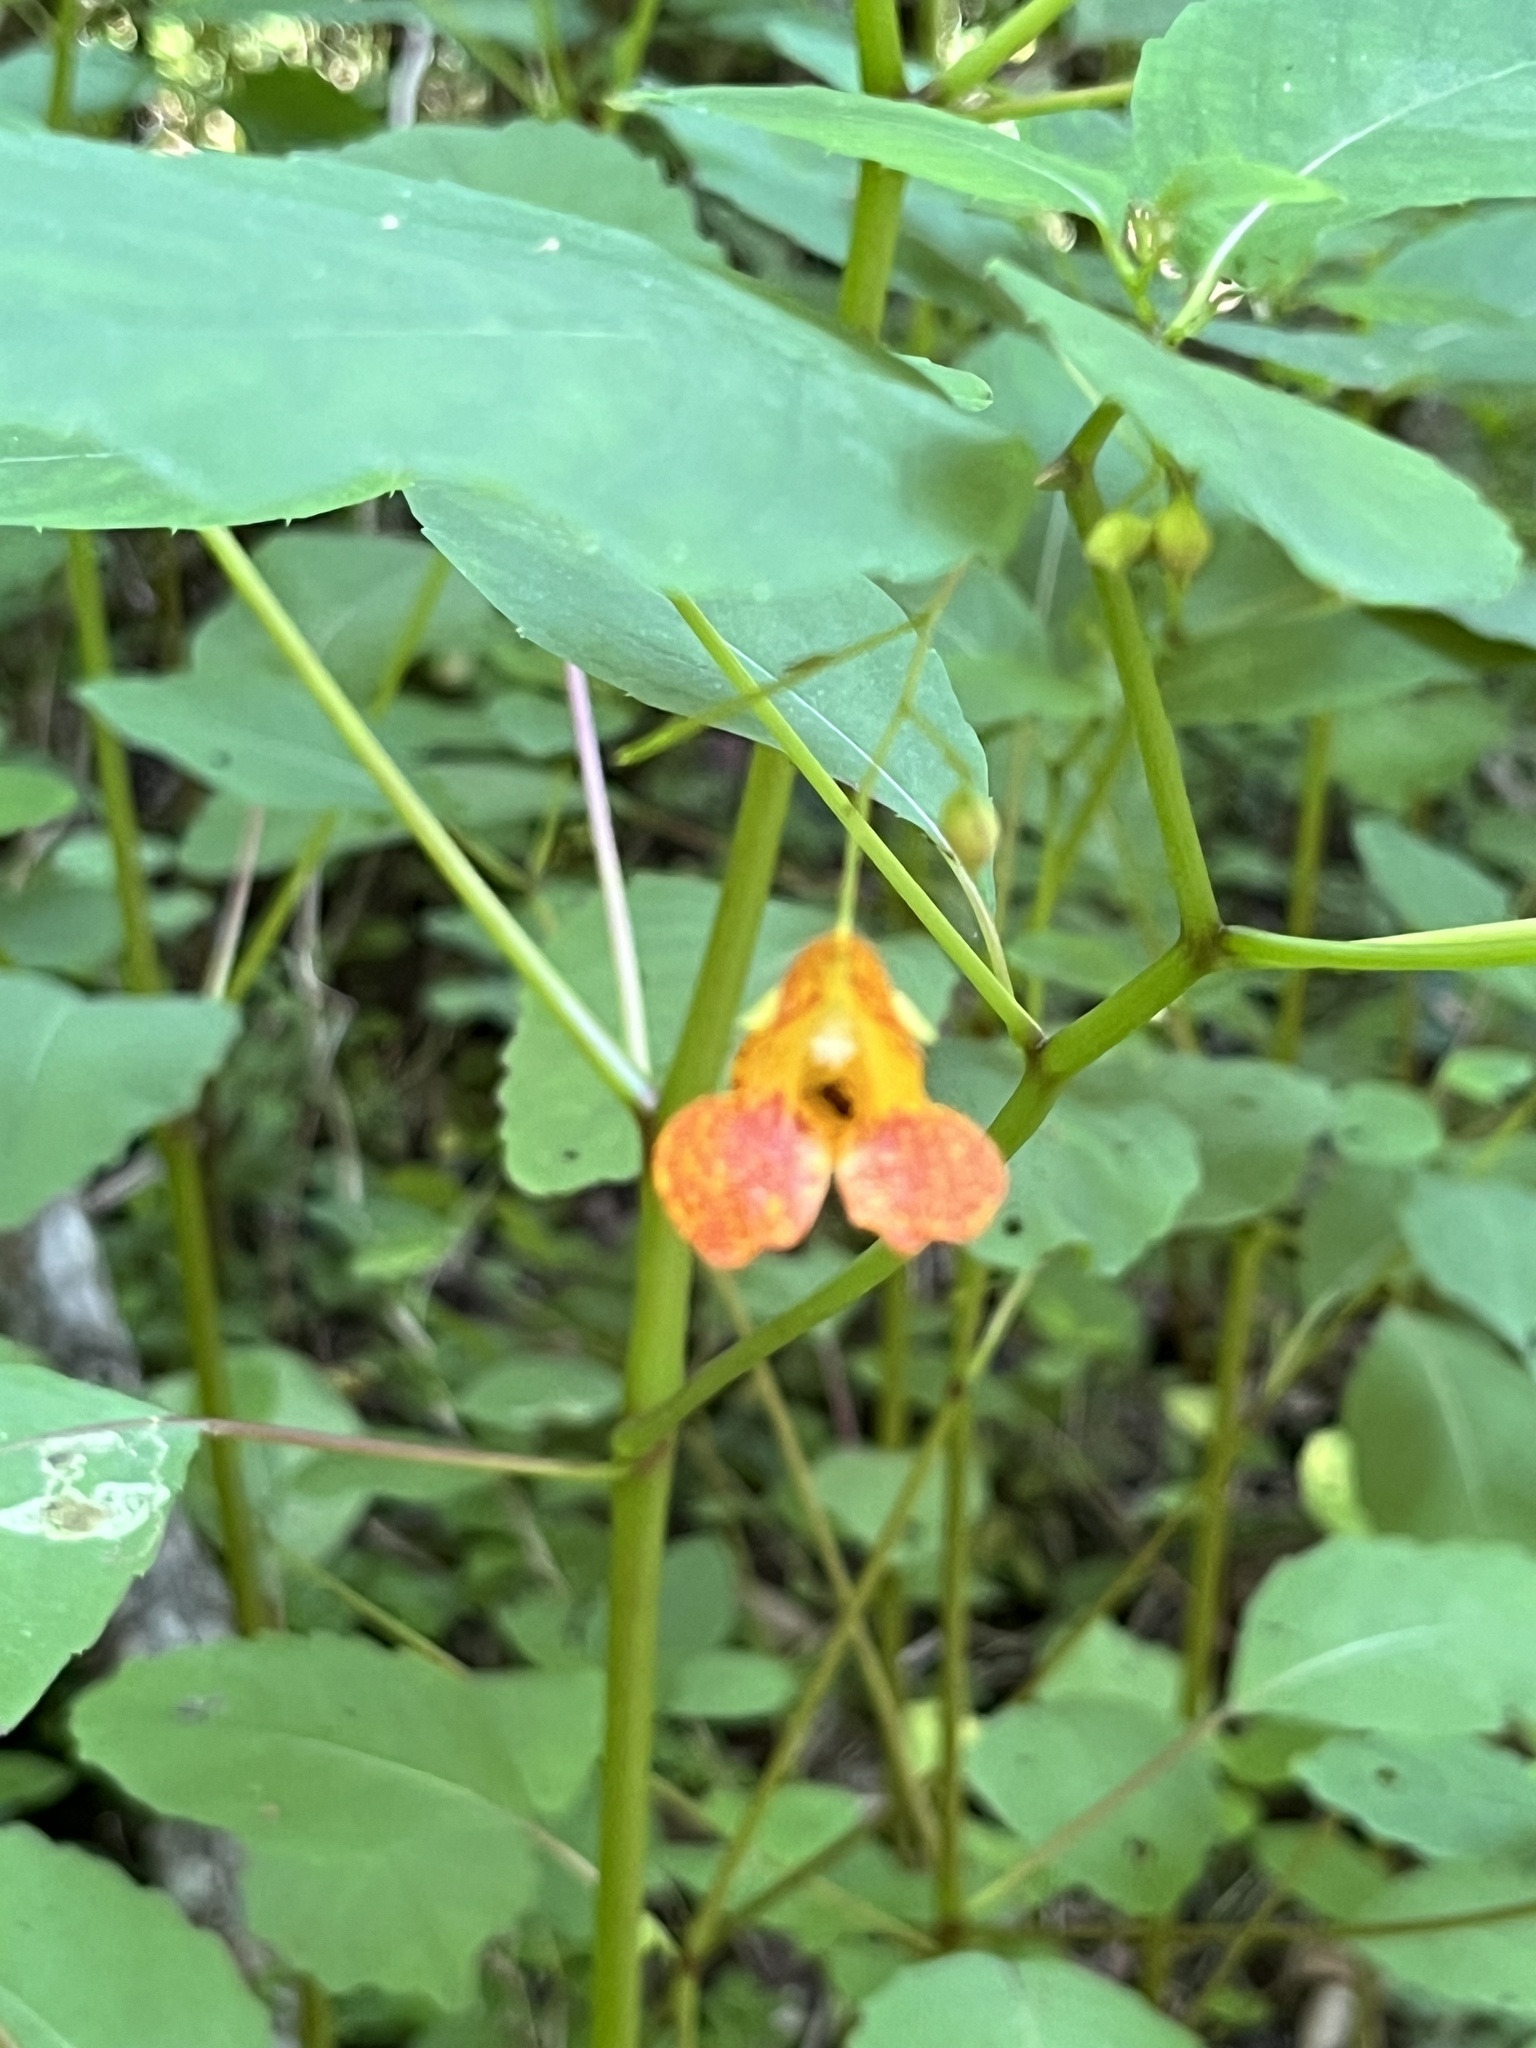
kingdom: Plantae
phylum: Tracheophyta
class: Magnoliopsida
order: Ericales
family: Balsaminaceae
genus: Impatiens
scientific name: Impatiens capensis
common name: Orange balsam
